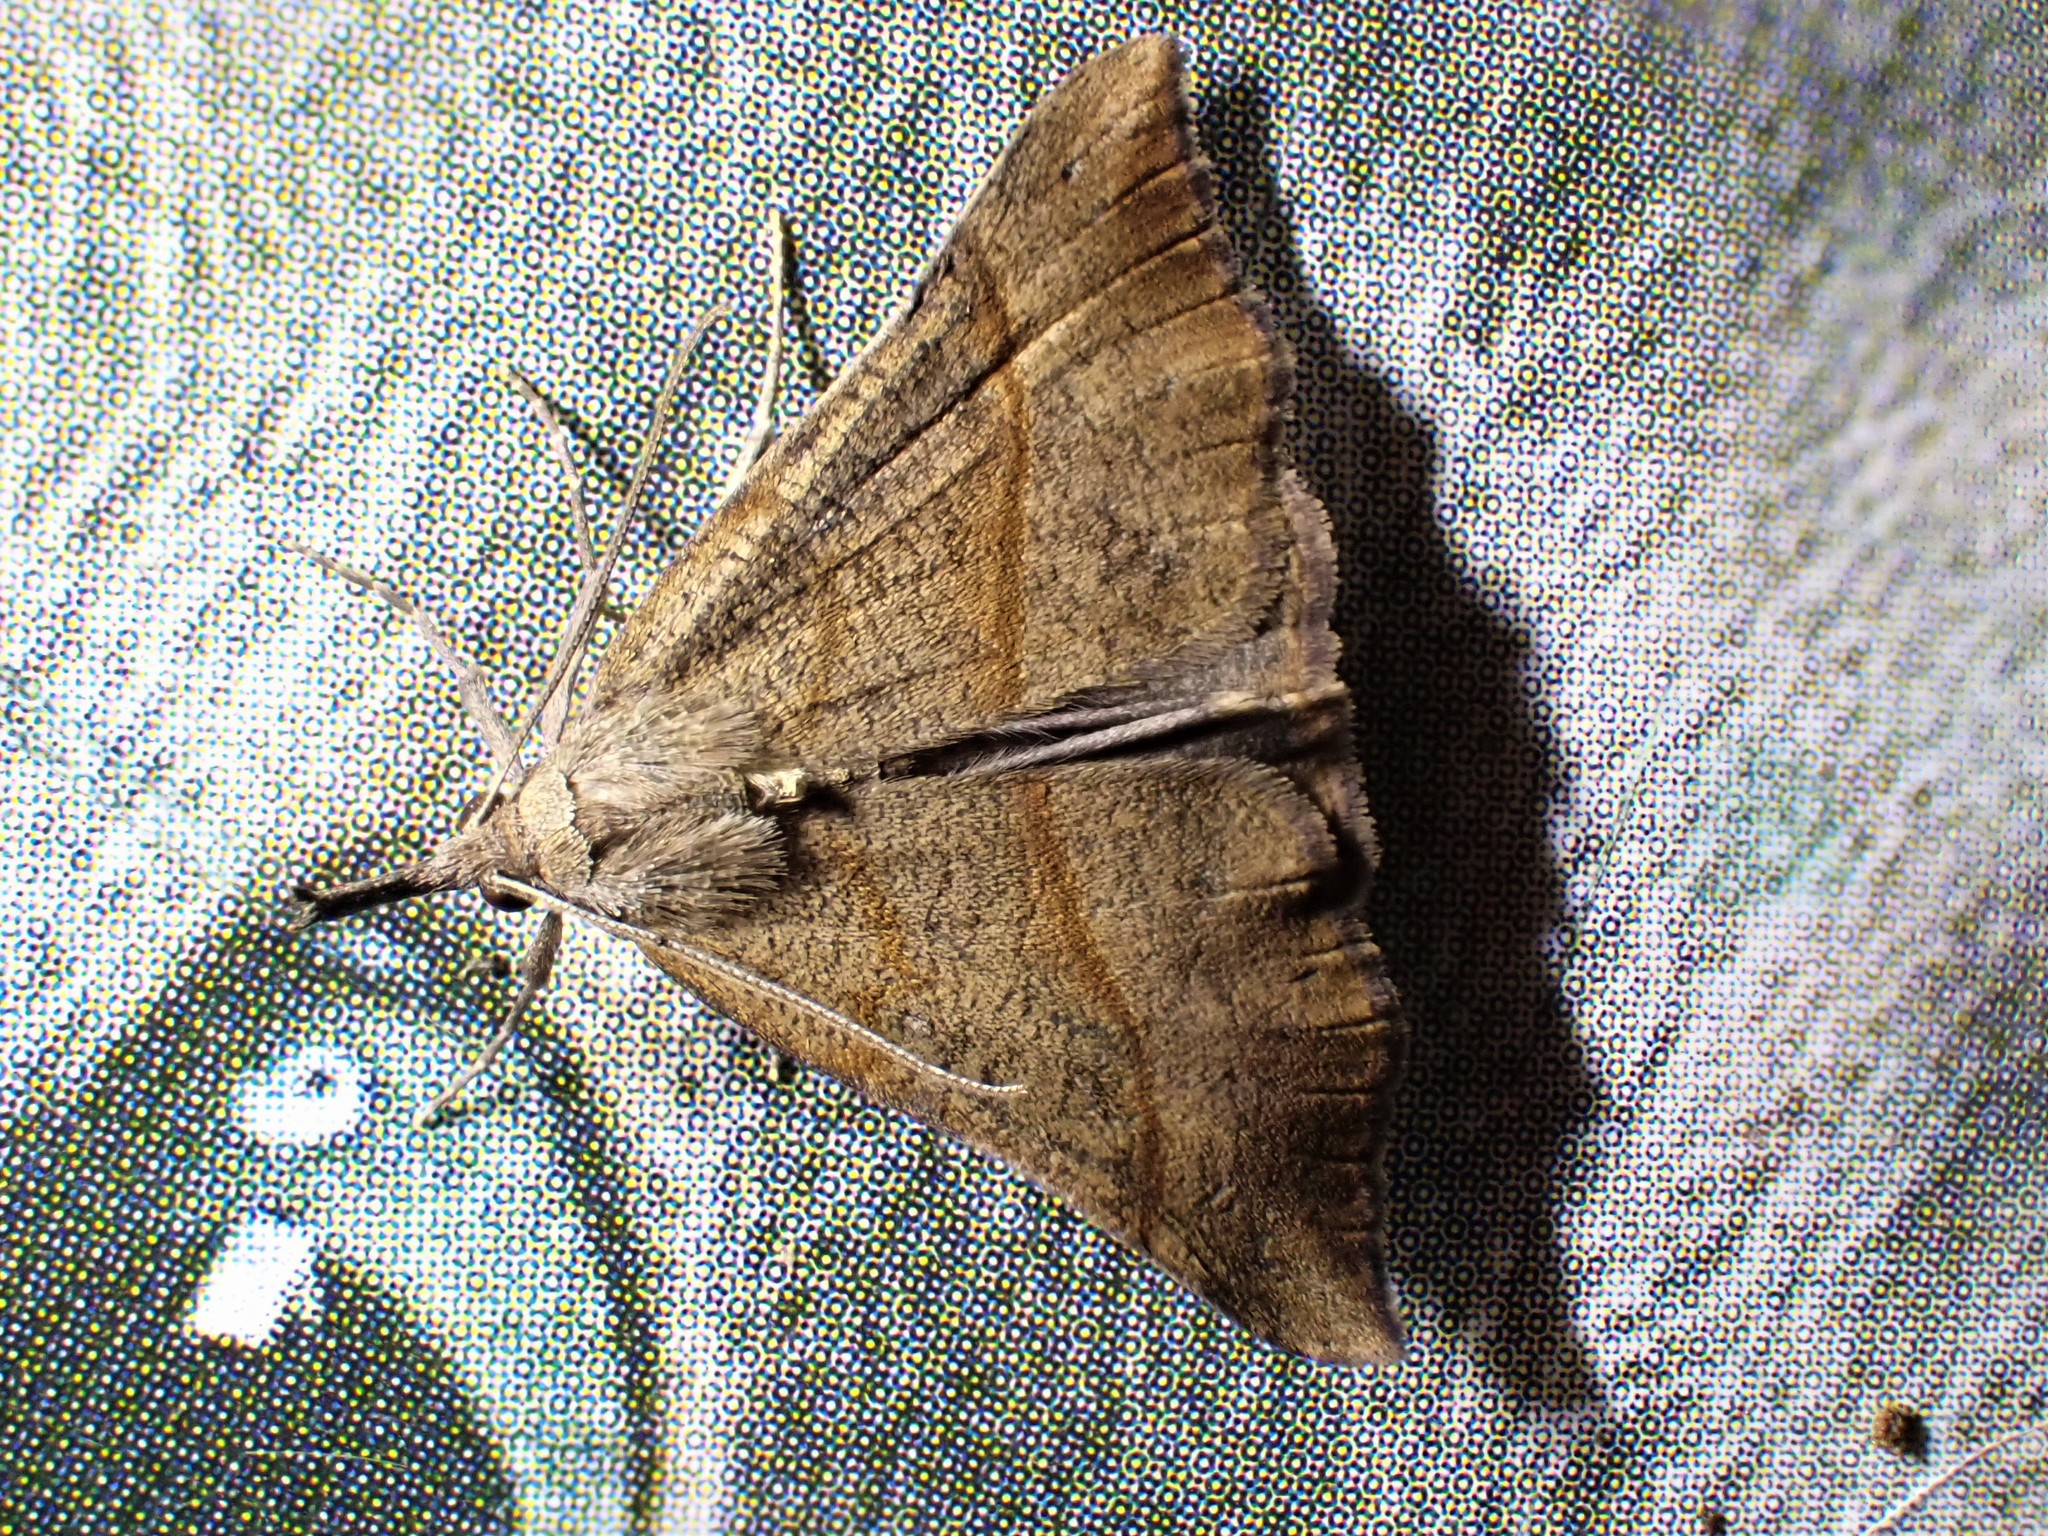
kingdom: Animalia
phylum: Arthropoda
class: Insecta
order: Lepidoptera
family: Erebidae
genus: Hypena
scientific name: Hypena proboscidalis
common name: Snout
